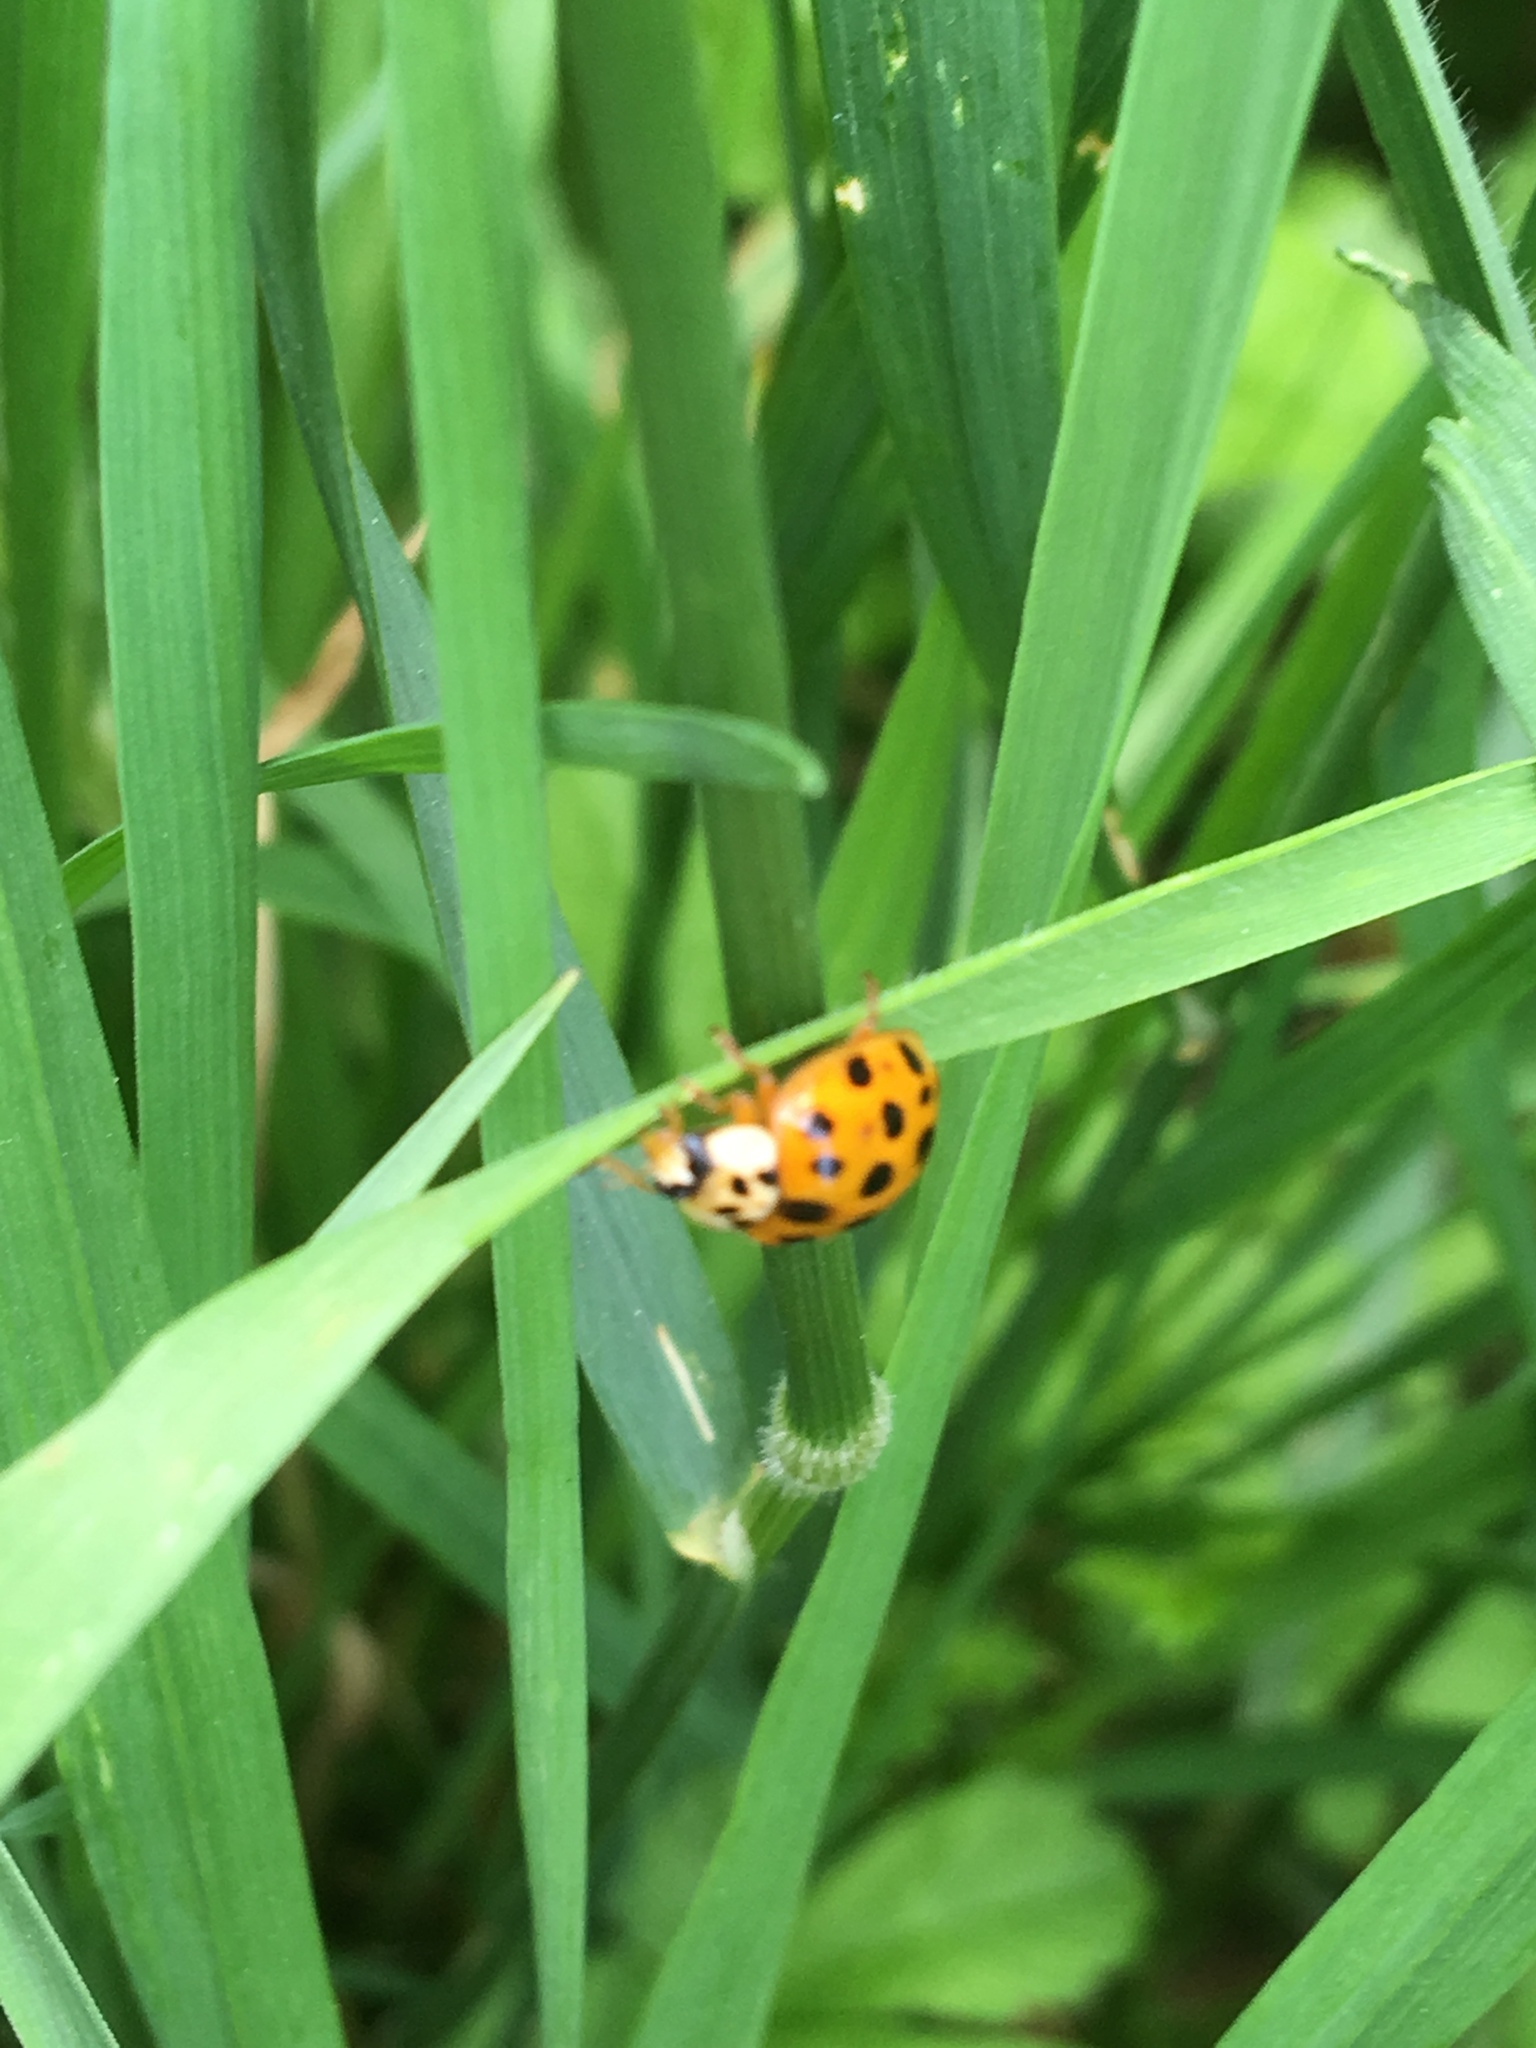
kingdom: Animalia
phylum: Arthropoda
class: Insecta
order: Coleoptera
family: Coccinellidae
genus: Harmonia
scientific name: Harmonia axyridis
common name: Harlequin ladybird
